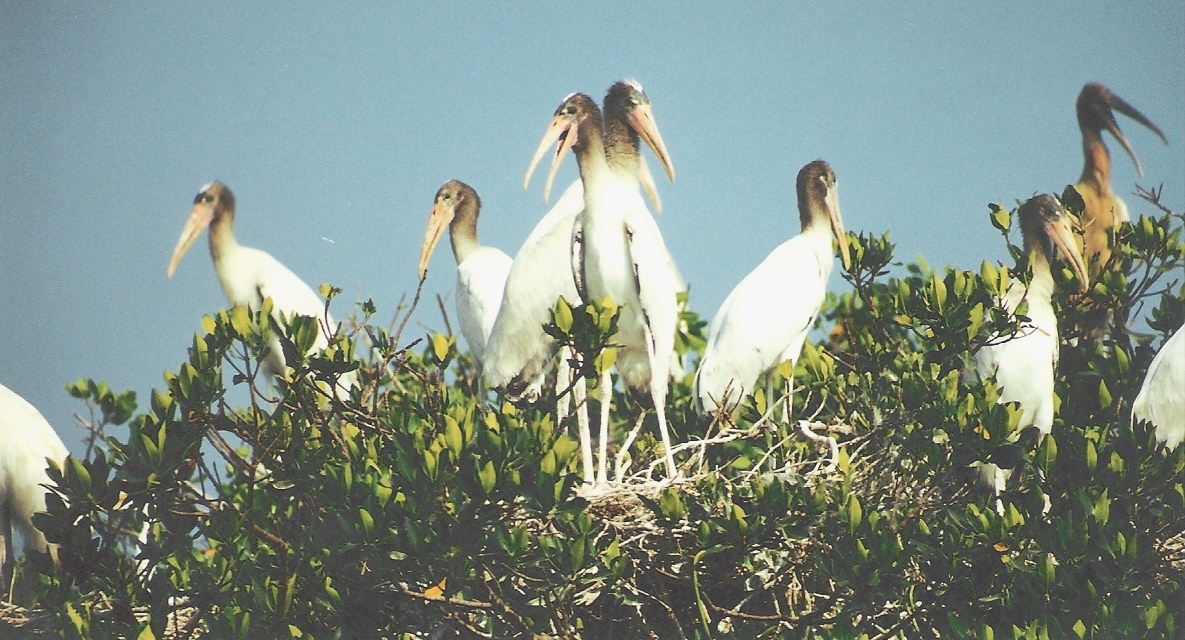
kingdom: Animalia
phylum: Chordata
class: Aves
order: Ciconiiformes
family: Ciconiidae
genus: Mycteria
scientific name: Mycteria americana
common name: Wood stork
